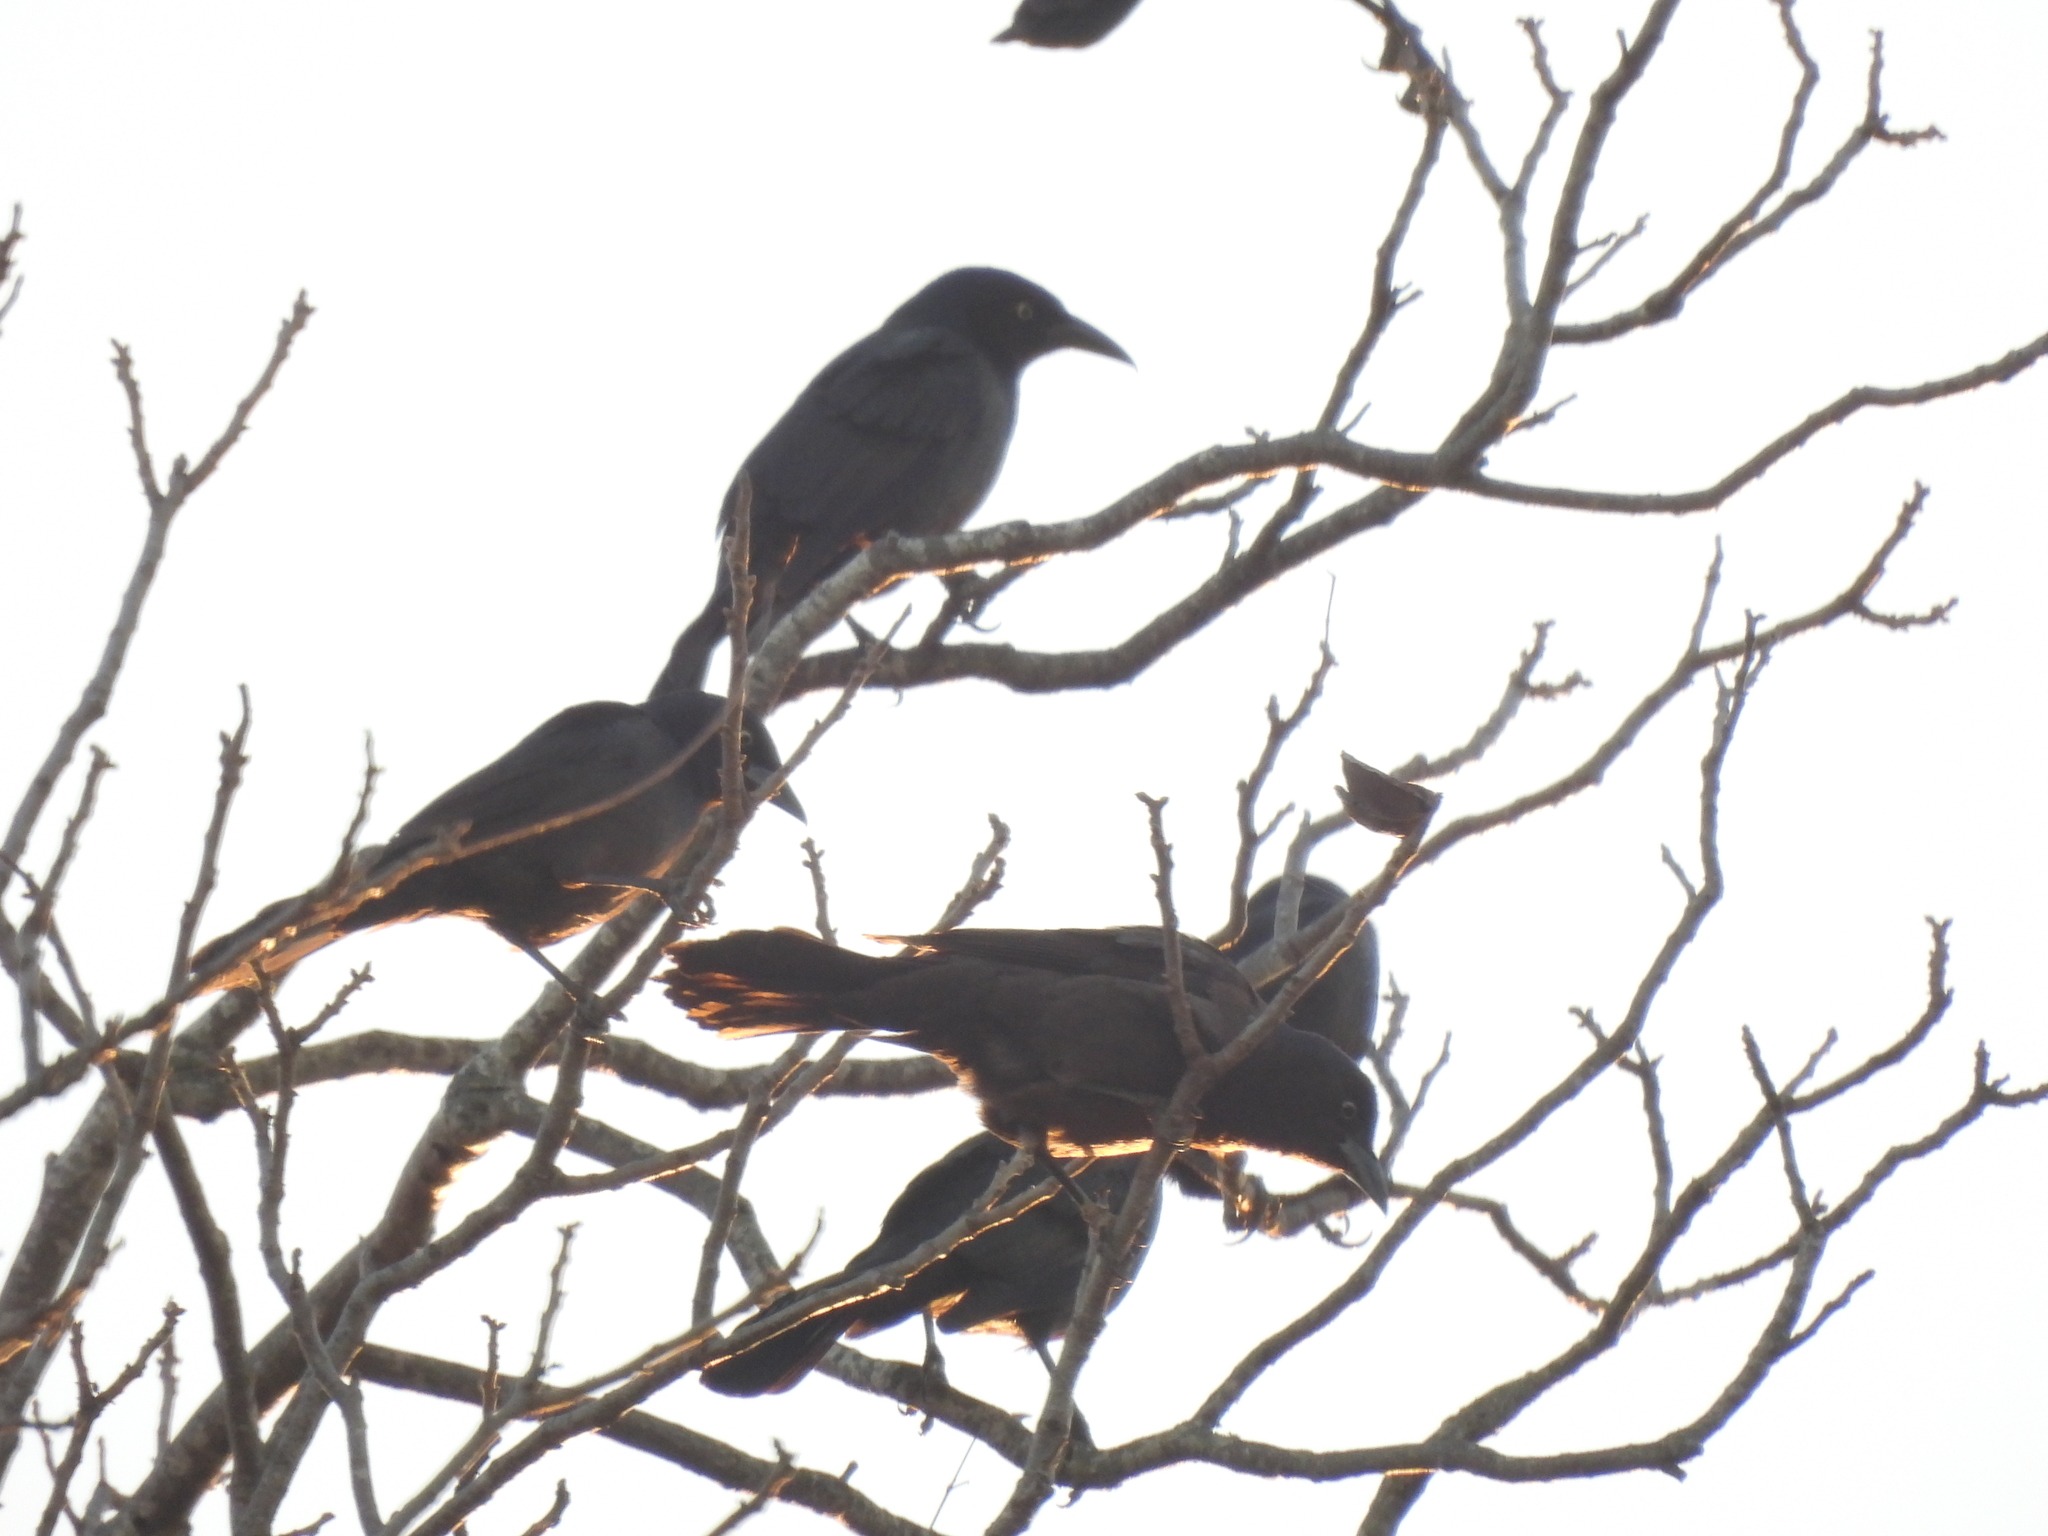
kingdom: Animalia
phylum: Chordata
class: Aves
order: Passeriformes
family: Icteridae
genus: Quiscalus
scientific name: Quiscalus quiscula
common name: Common grackle
